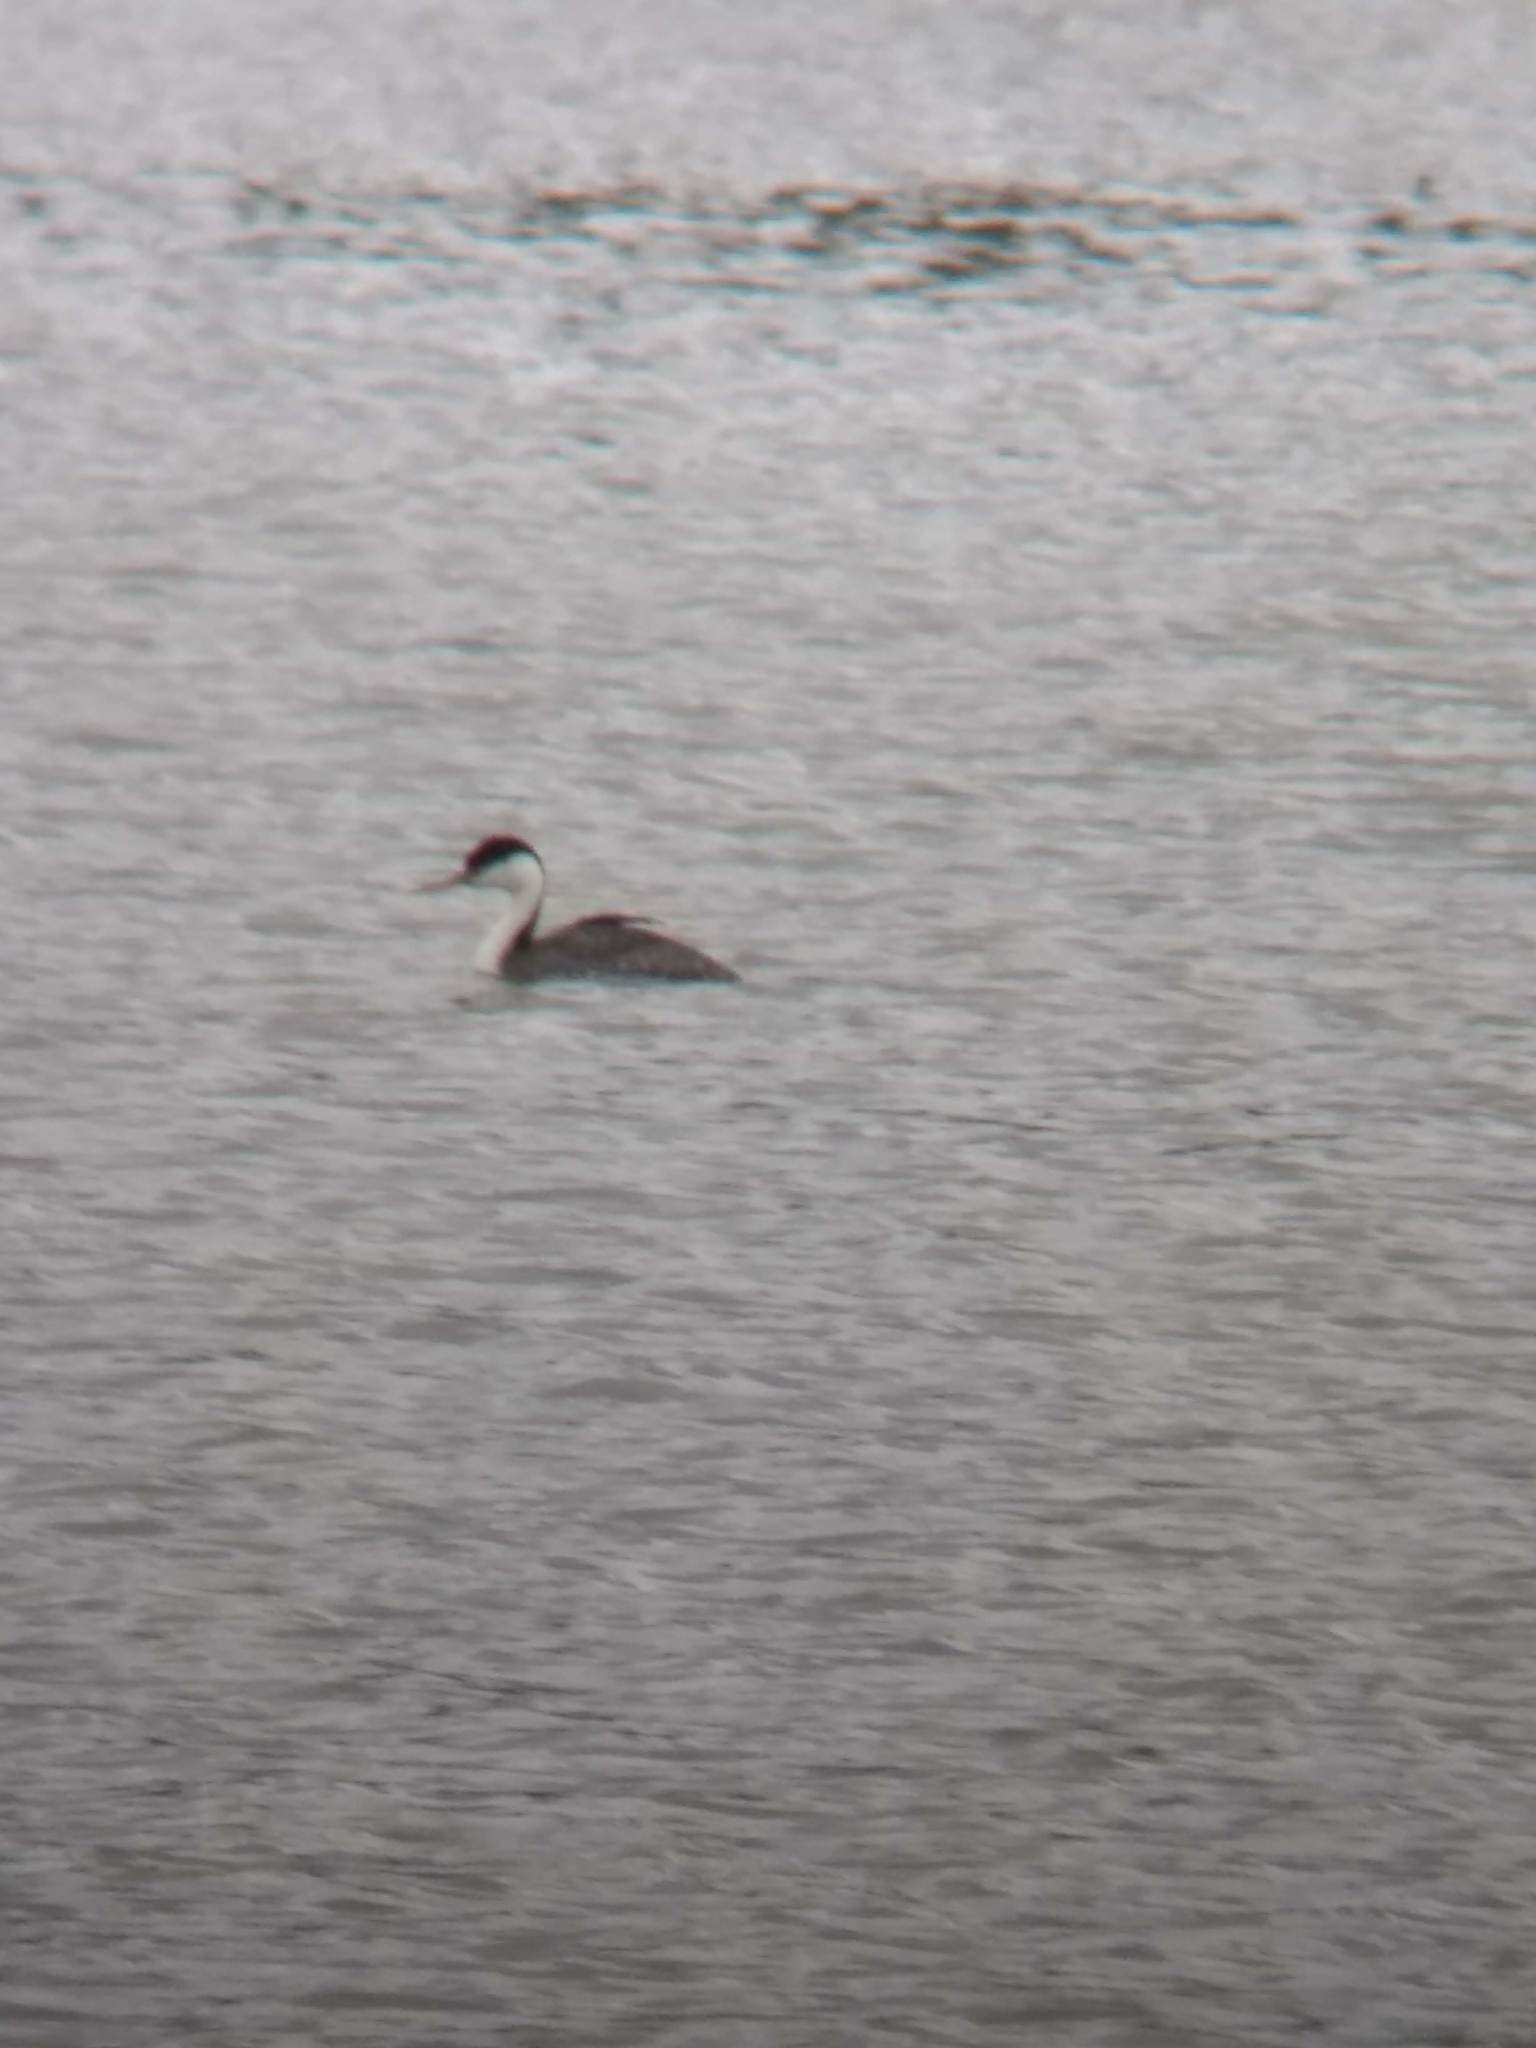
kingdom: Animalia
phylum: Chordata
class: Aves
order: Podicipediformes
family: Podicipedidae
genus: Aechmophorus
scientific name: Aechmophorus occidentalis
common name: Western grebe
